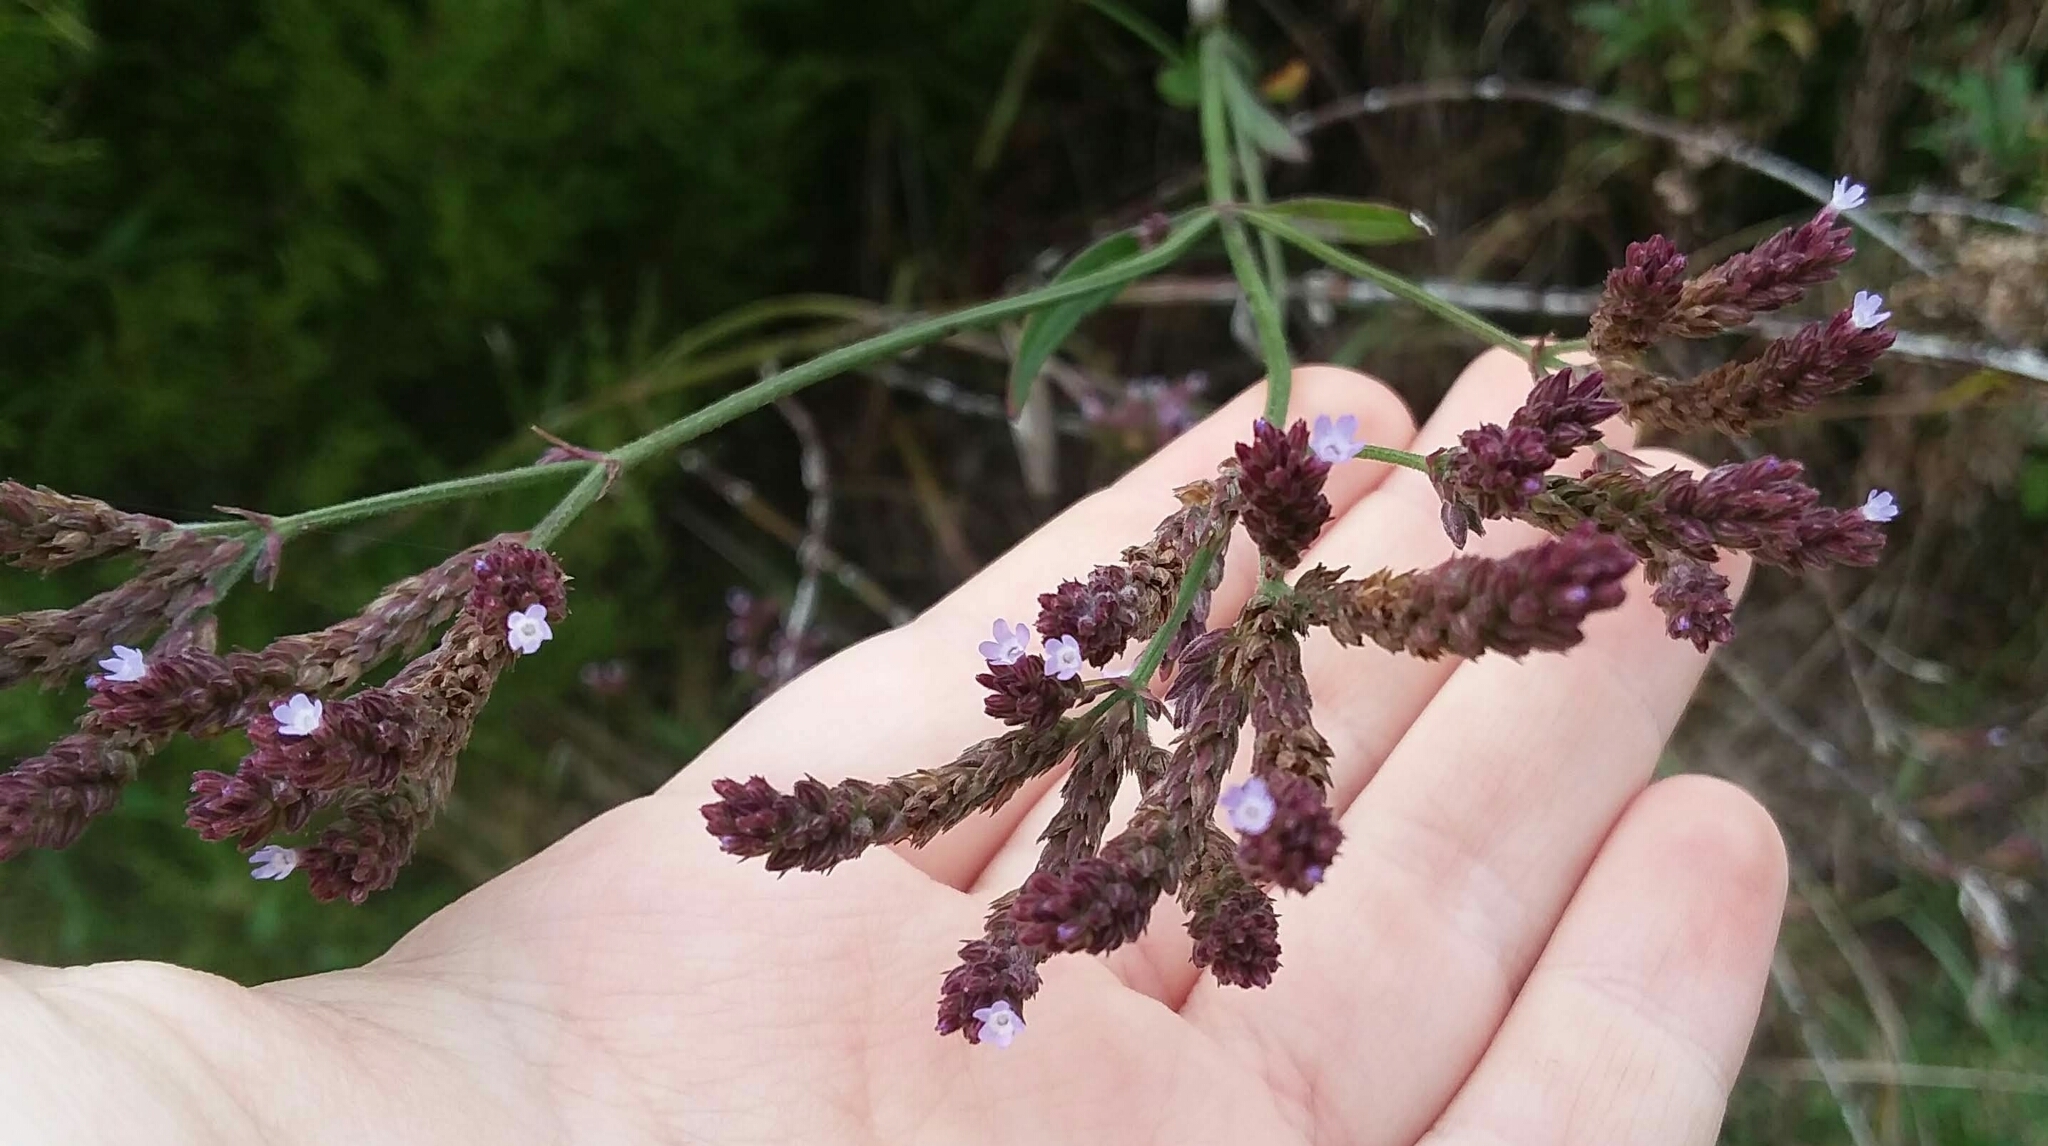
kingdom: Plantae
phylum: Tracheophyta
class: Magnoliopsida
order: Lamiales
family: Verbenaceae
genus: Verbena
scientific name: Verbena brasiliensis
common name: Brazilian vervain
